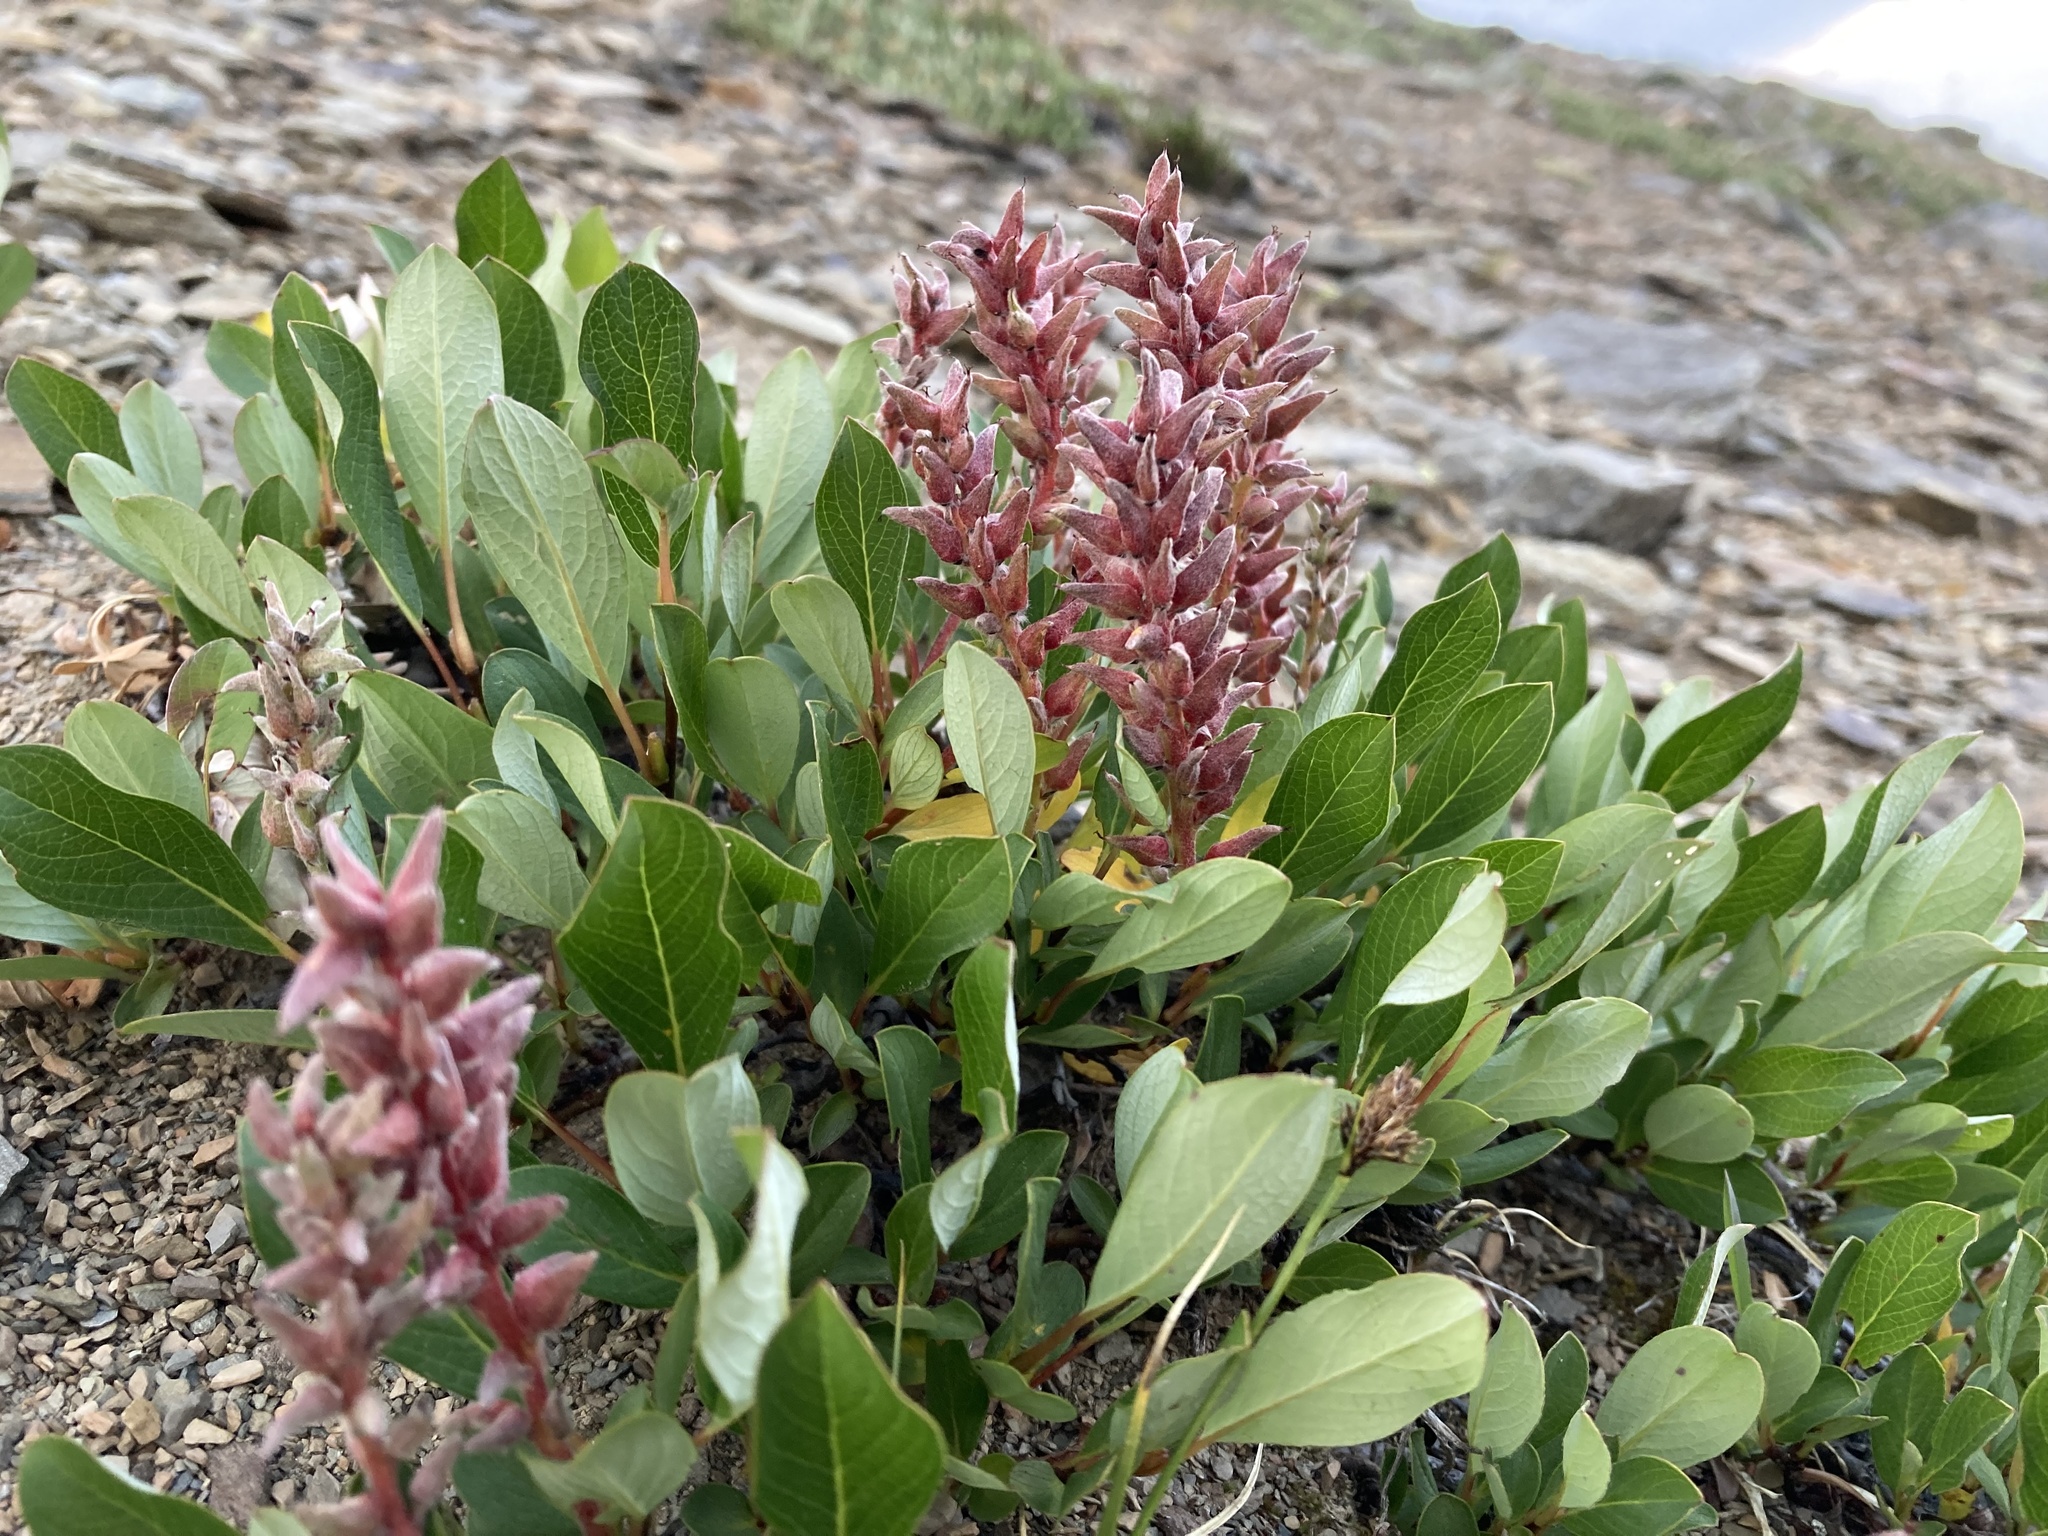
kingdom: Plantae
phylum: Tracheophyta
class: Magnoliopsida
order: Malpighiales
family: Salicaceae
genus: Salix
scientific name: Salix arctica
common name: Arctic willow
